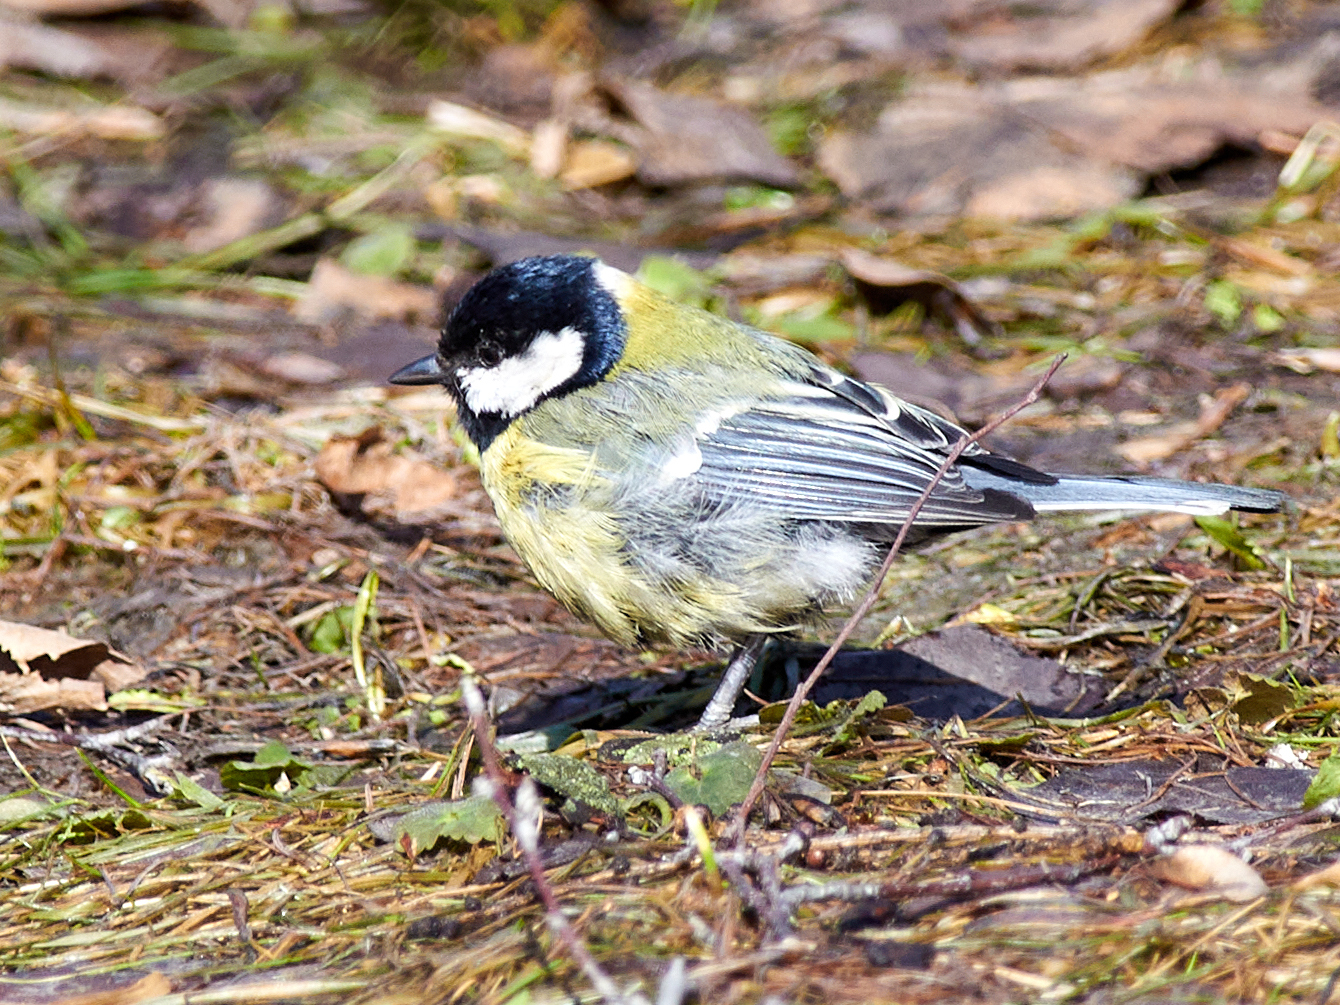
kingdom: Animalia
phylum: Chordata
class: Aves
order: Passeriformes
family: Paridae
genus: Parus
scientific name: Parus major
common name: Great tit
